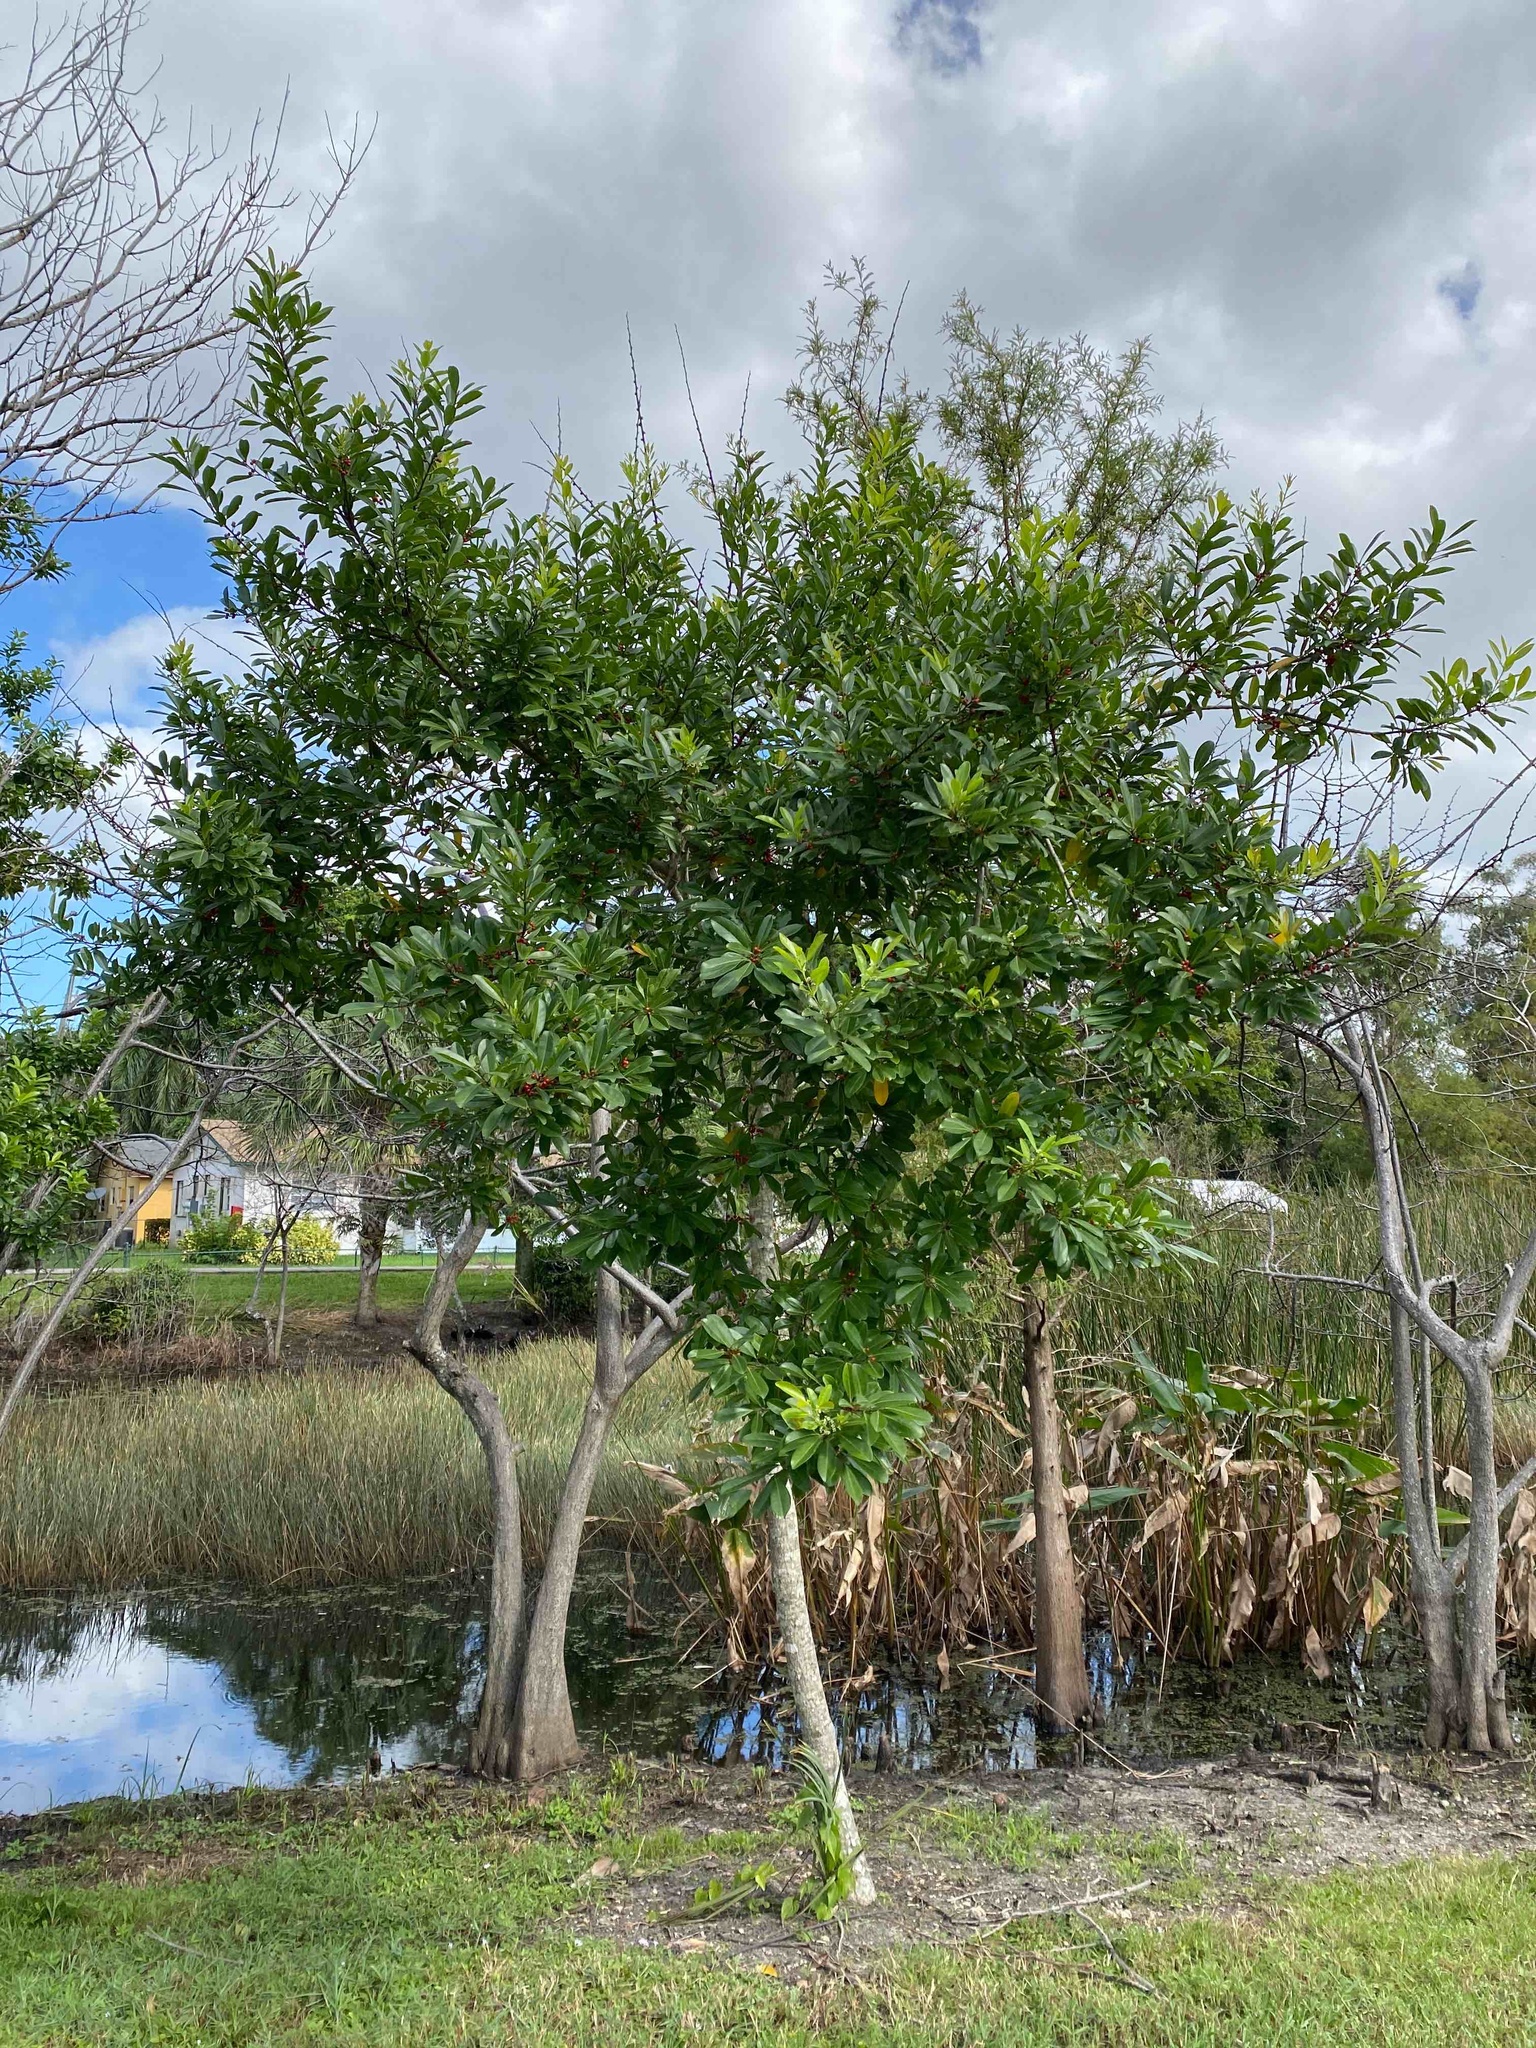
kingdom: Plantae
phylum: Tracheophyta
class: Magnoliopsida
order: Aquifoliales
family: Aquifoliaceae
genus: Ilex
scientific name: Ilex cassine
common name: Dahoon
